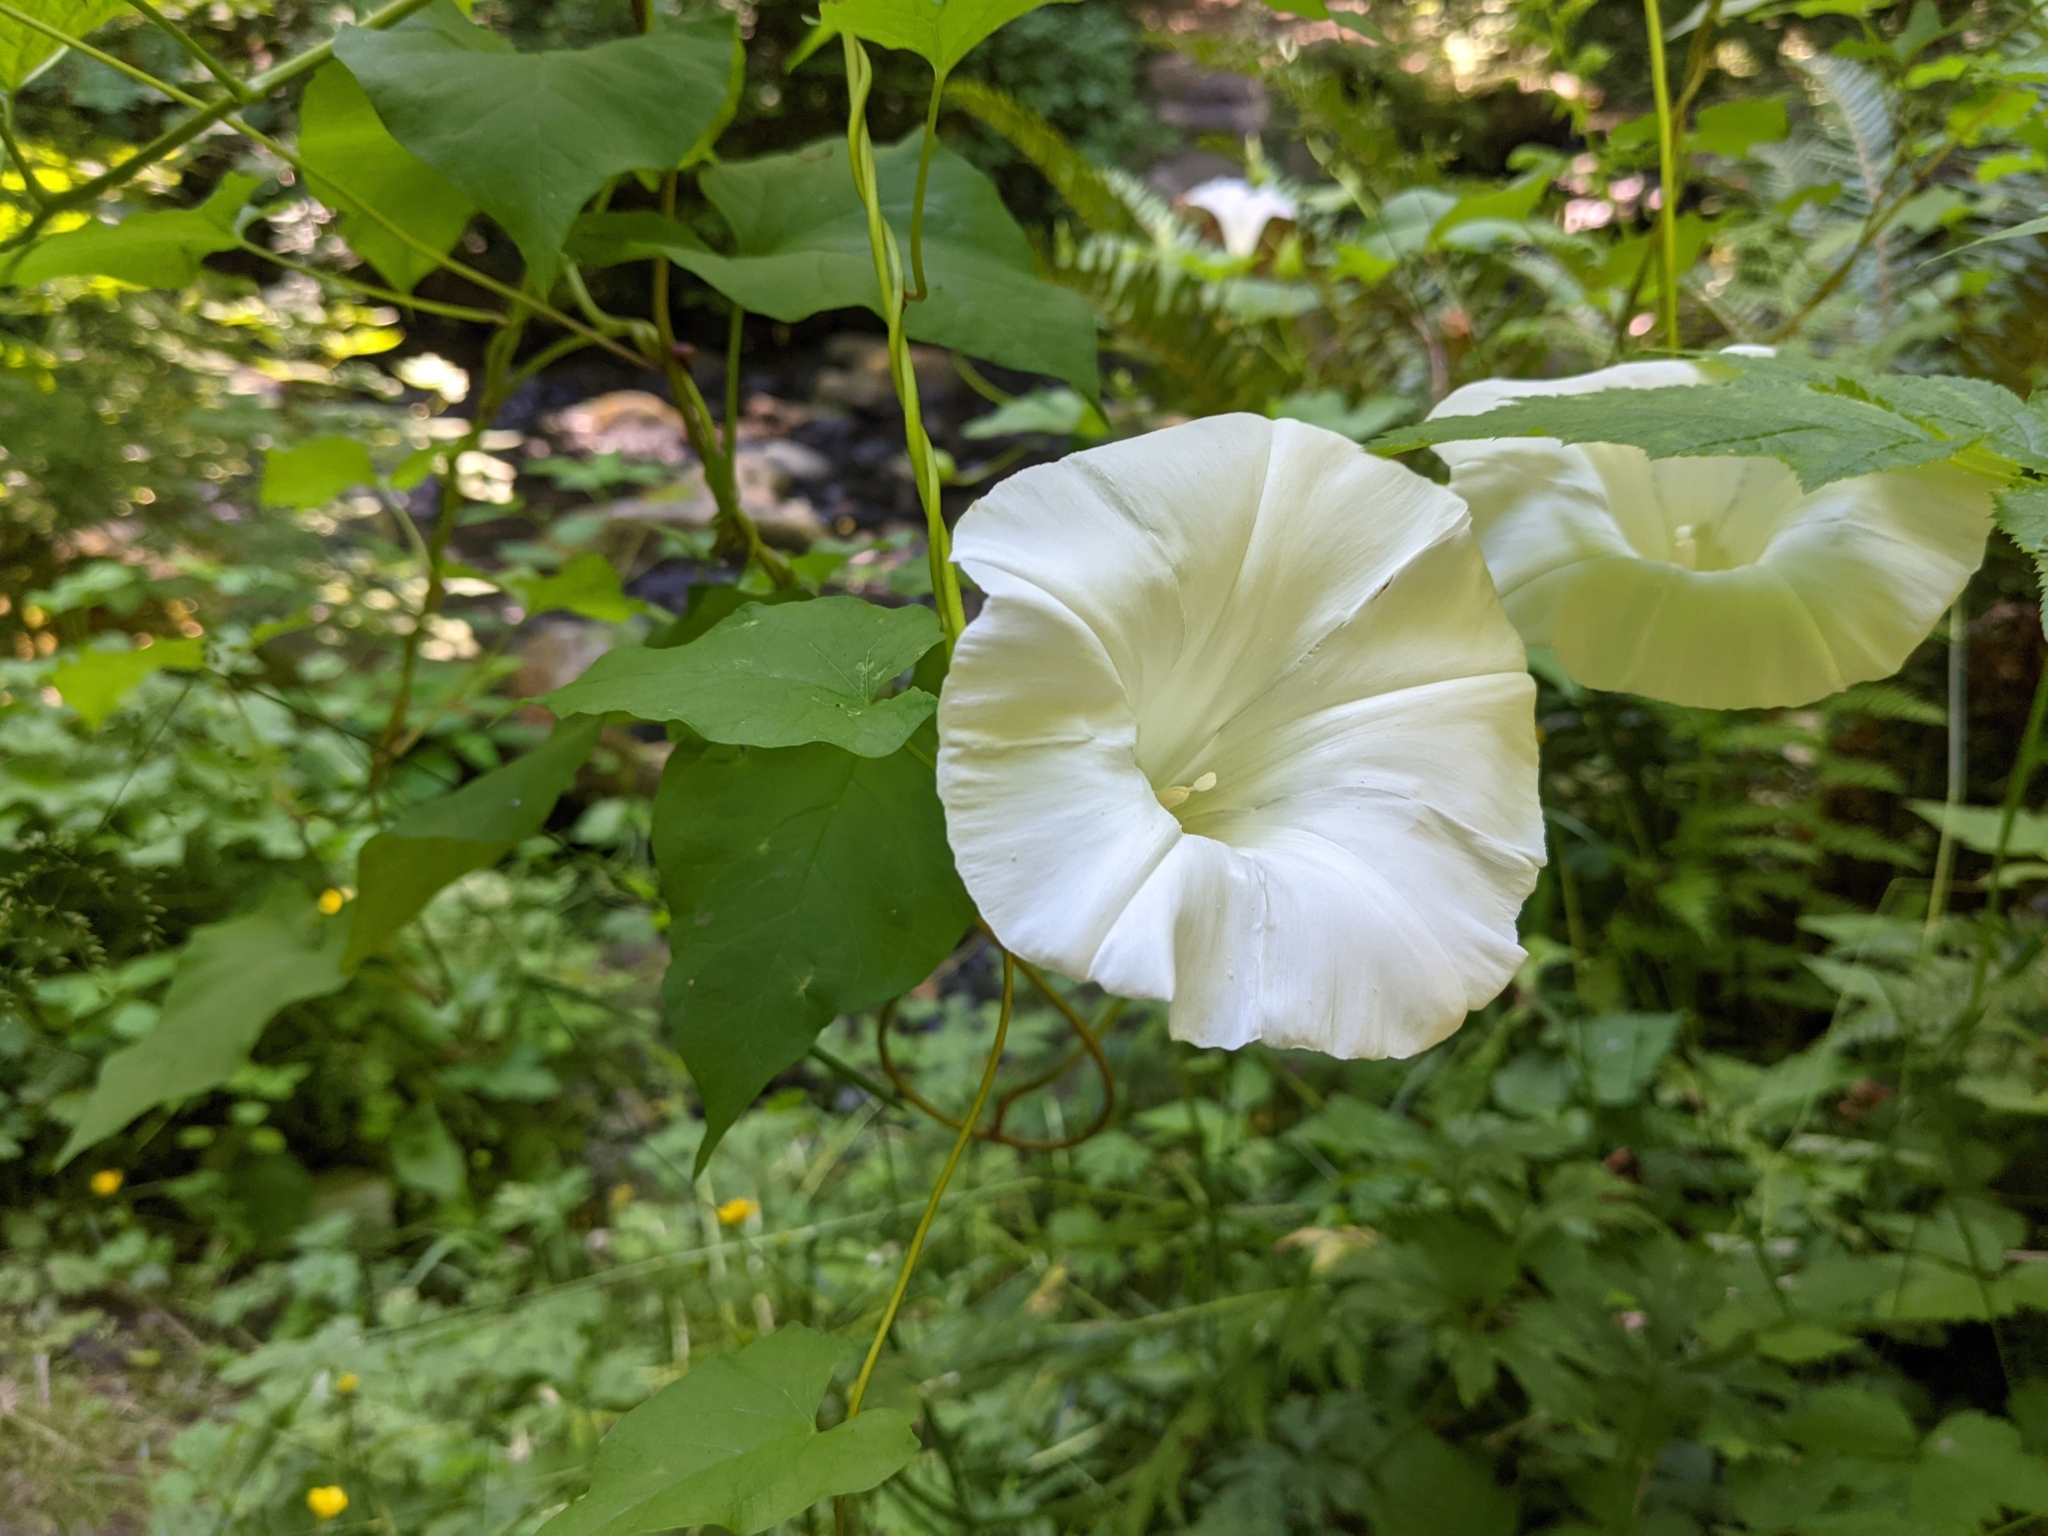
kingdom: Plantae
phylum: Tracheophyta
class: Magnoliopsida
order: Solanales
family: Convolvulaceae
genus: Calystegia
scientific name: Calystegia silvatica
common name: Large bindweed
